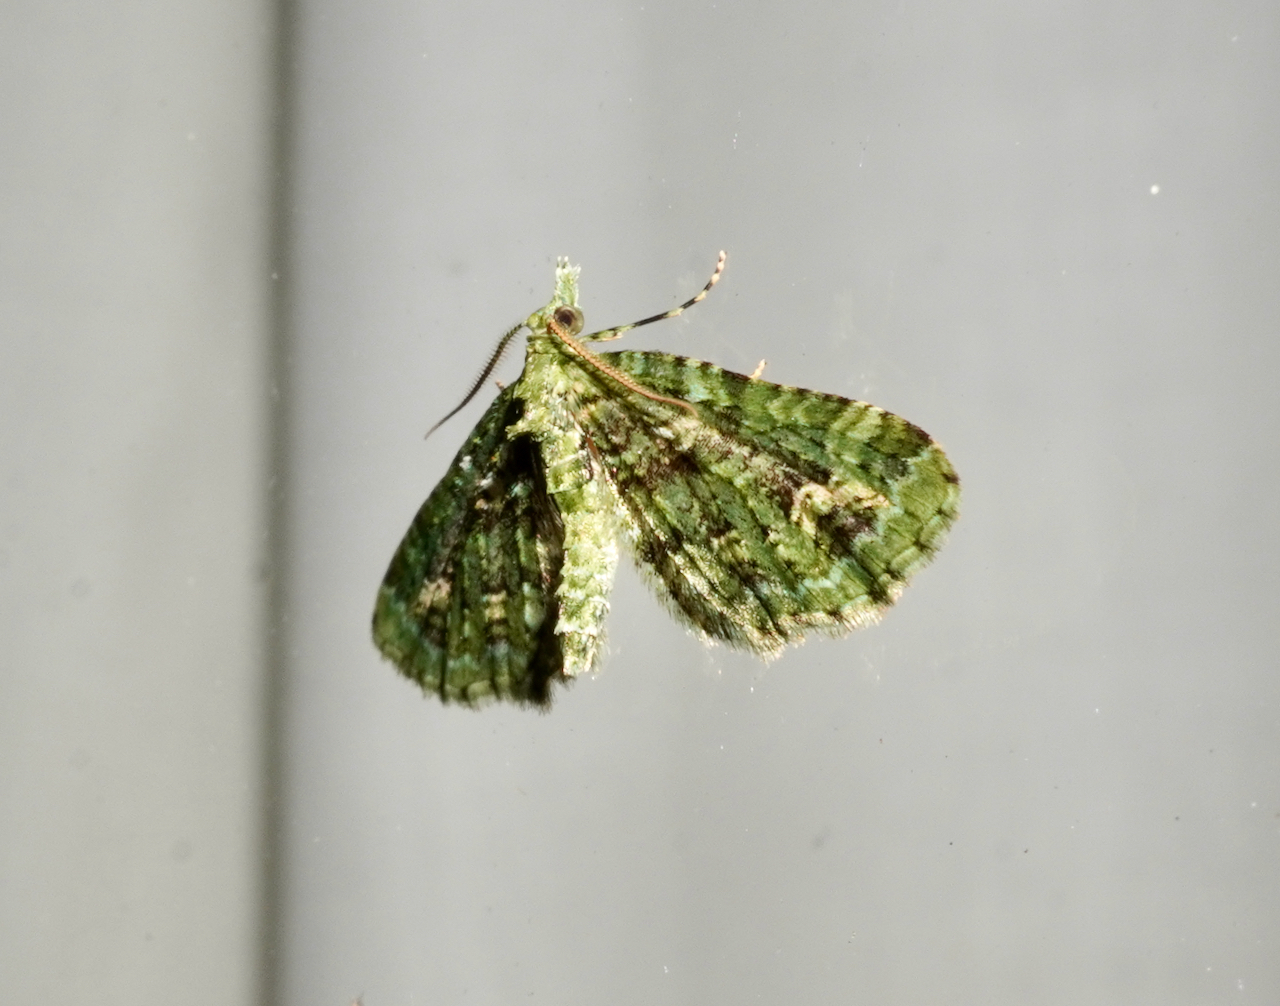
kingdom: Animalia
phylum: Arthropoda
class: Insecta
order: Lepidoptera
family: Geometridae
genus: Pasiphila
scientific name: Pasiphila muscosata
